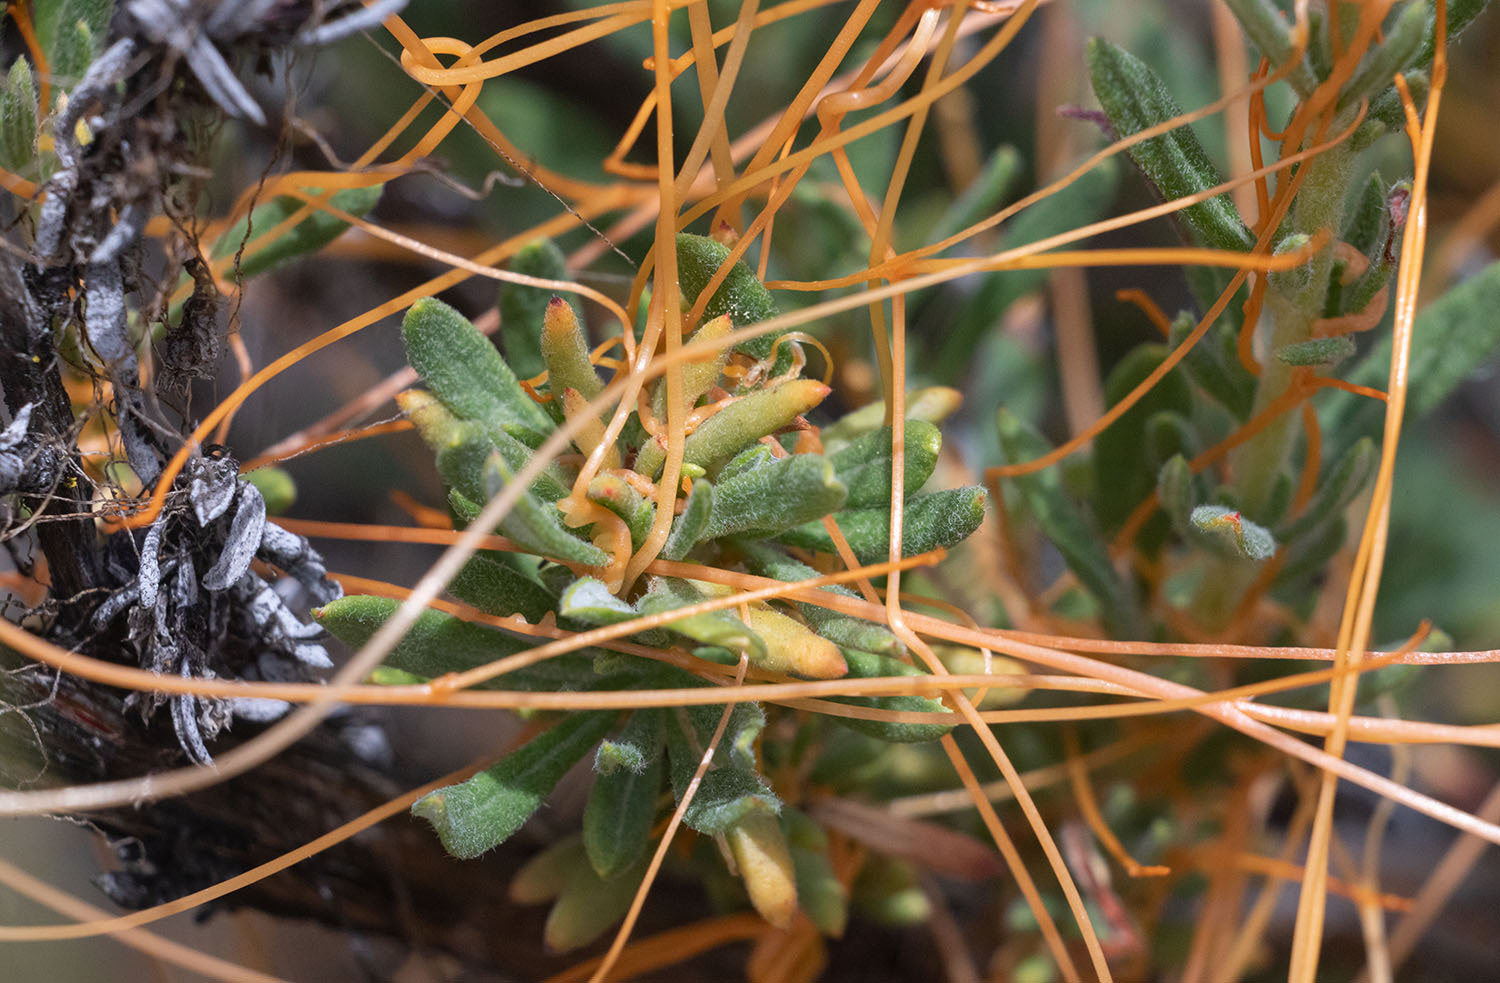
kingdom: Plantae
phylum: Tracheophyta
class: Magnoliopsida
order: Solanales
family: Convolvulaceae
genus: Cuscuta
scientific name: Cuscuta californica
